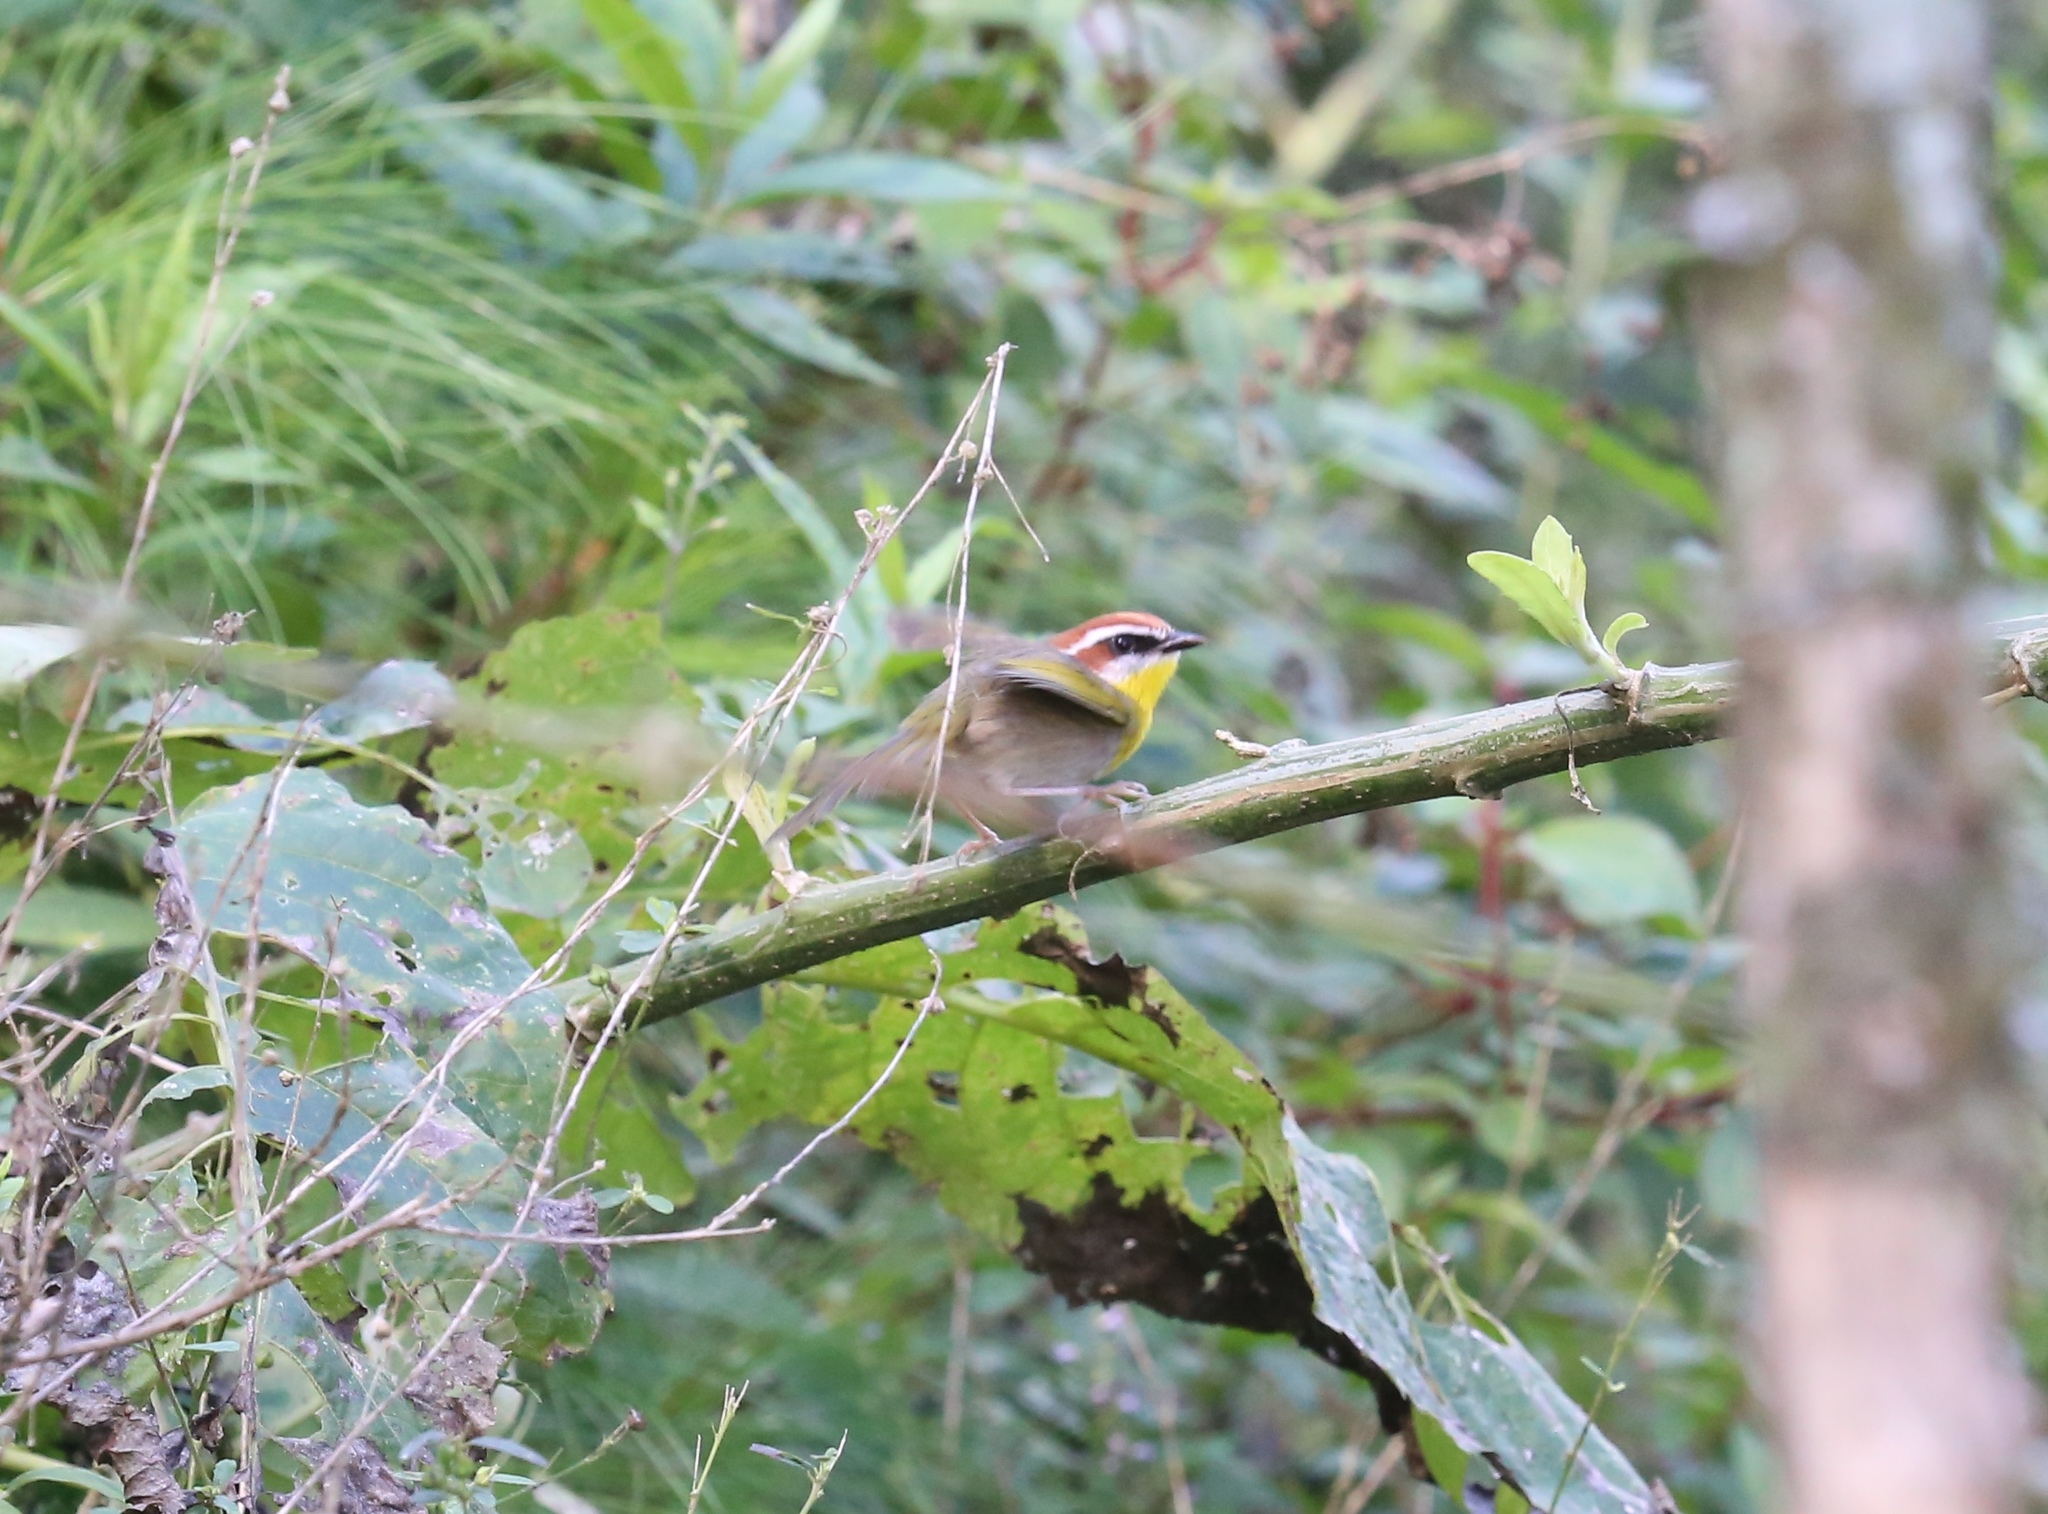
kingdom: Animalia
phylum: Chordata
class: Aves
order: Passeriformes
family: Parulidae
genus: Basileuterus
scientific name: Basileuterus rufifrons
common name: Rufous-capped warbler
